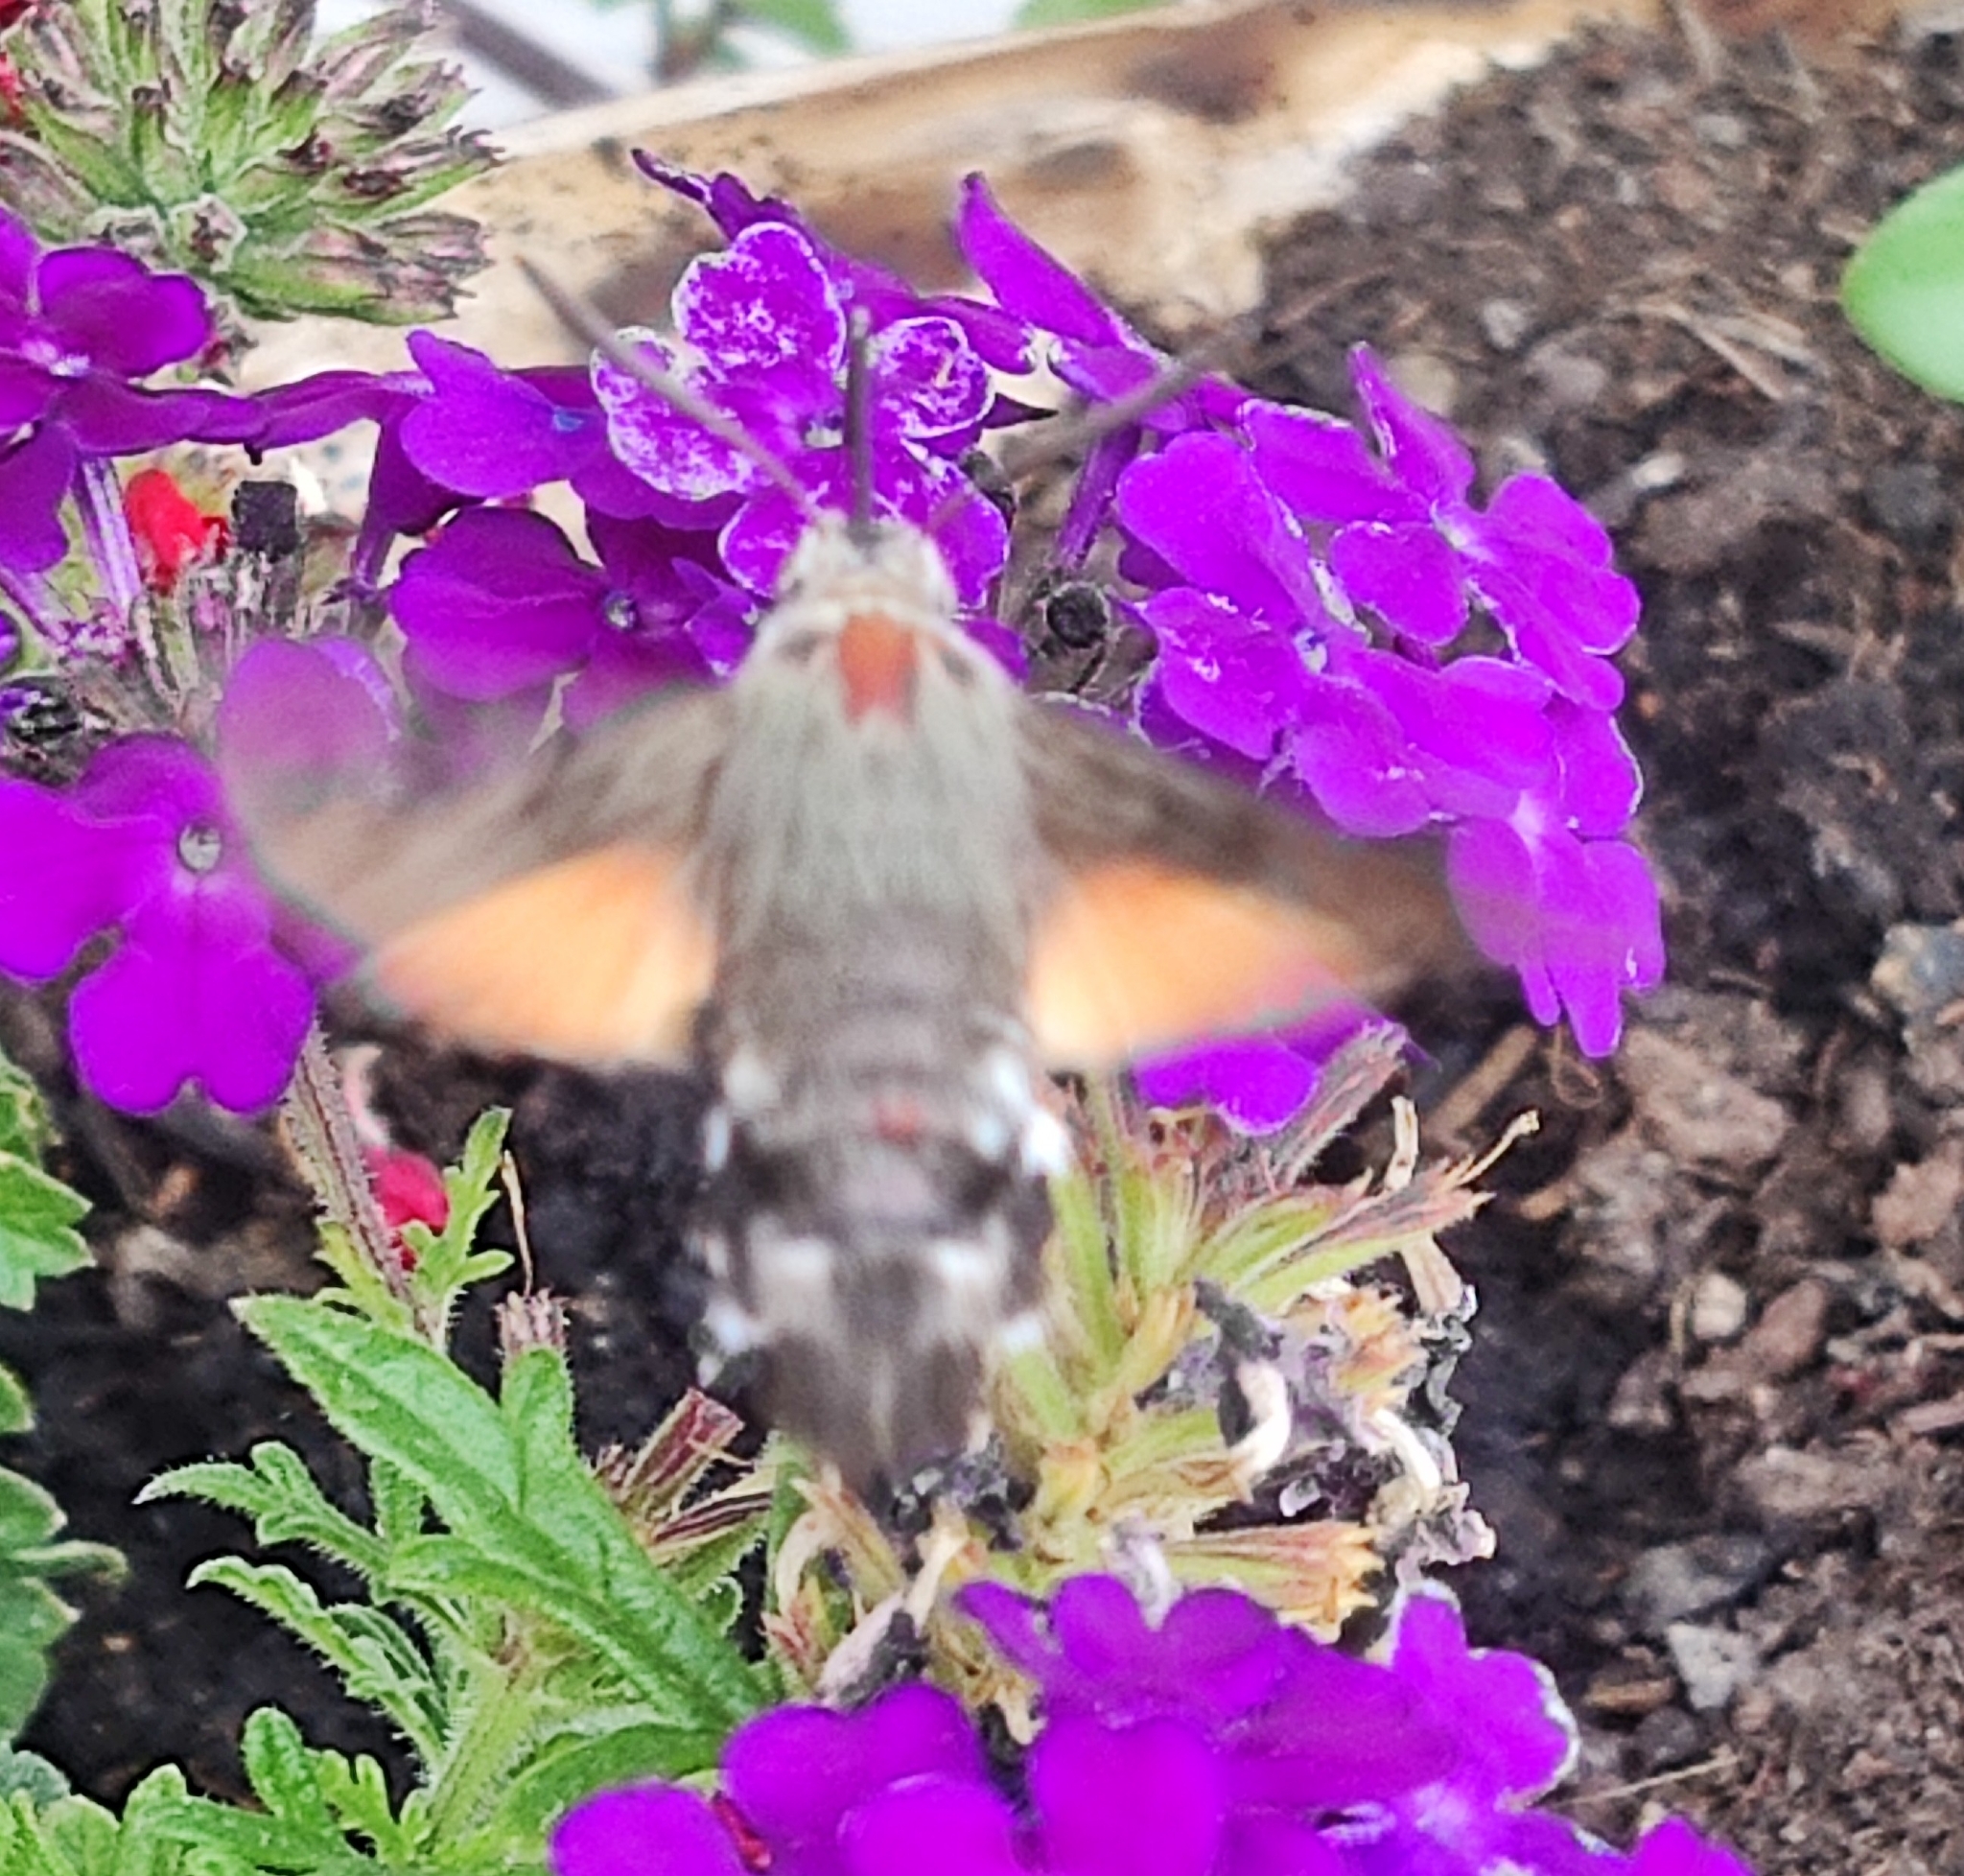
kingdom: Animalia
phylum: Arthropoda
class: Insecta
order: Lepidoptera
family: Sphingidae
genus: Macroglossum
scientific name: Macroglossum stellatarum
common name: Humming-bird hawk-moth
